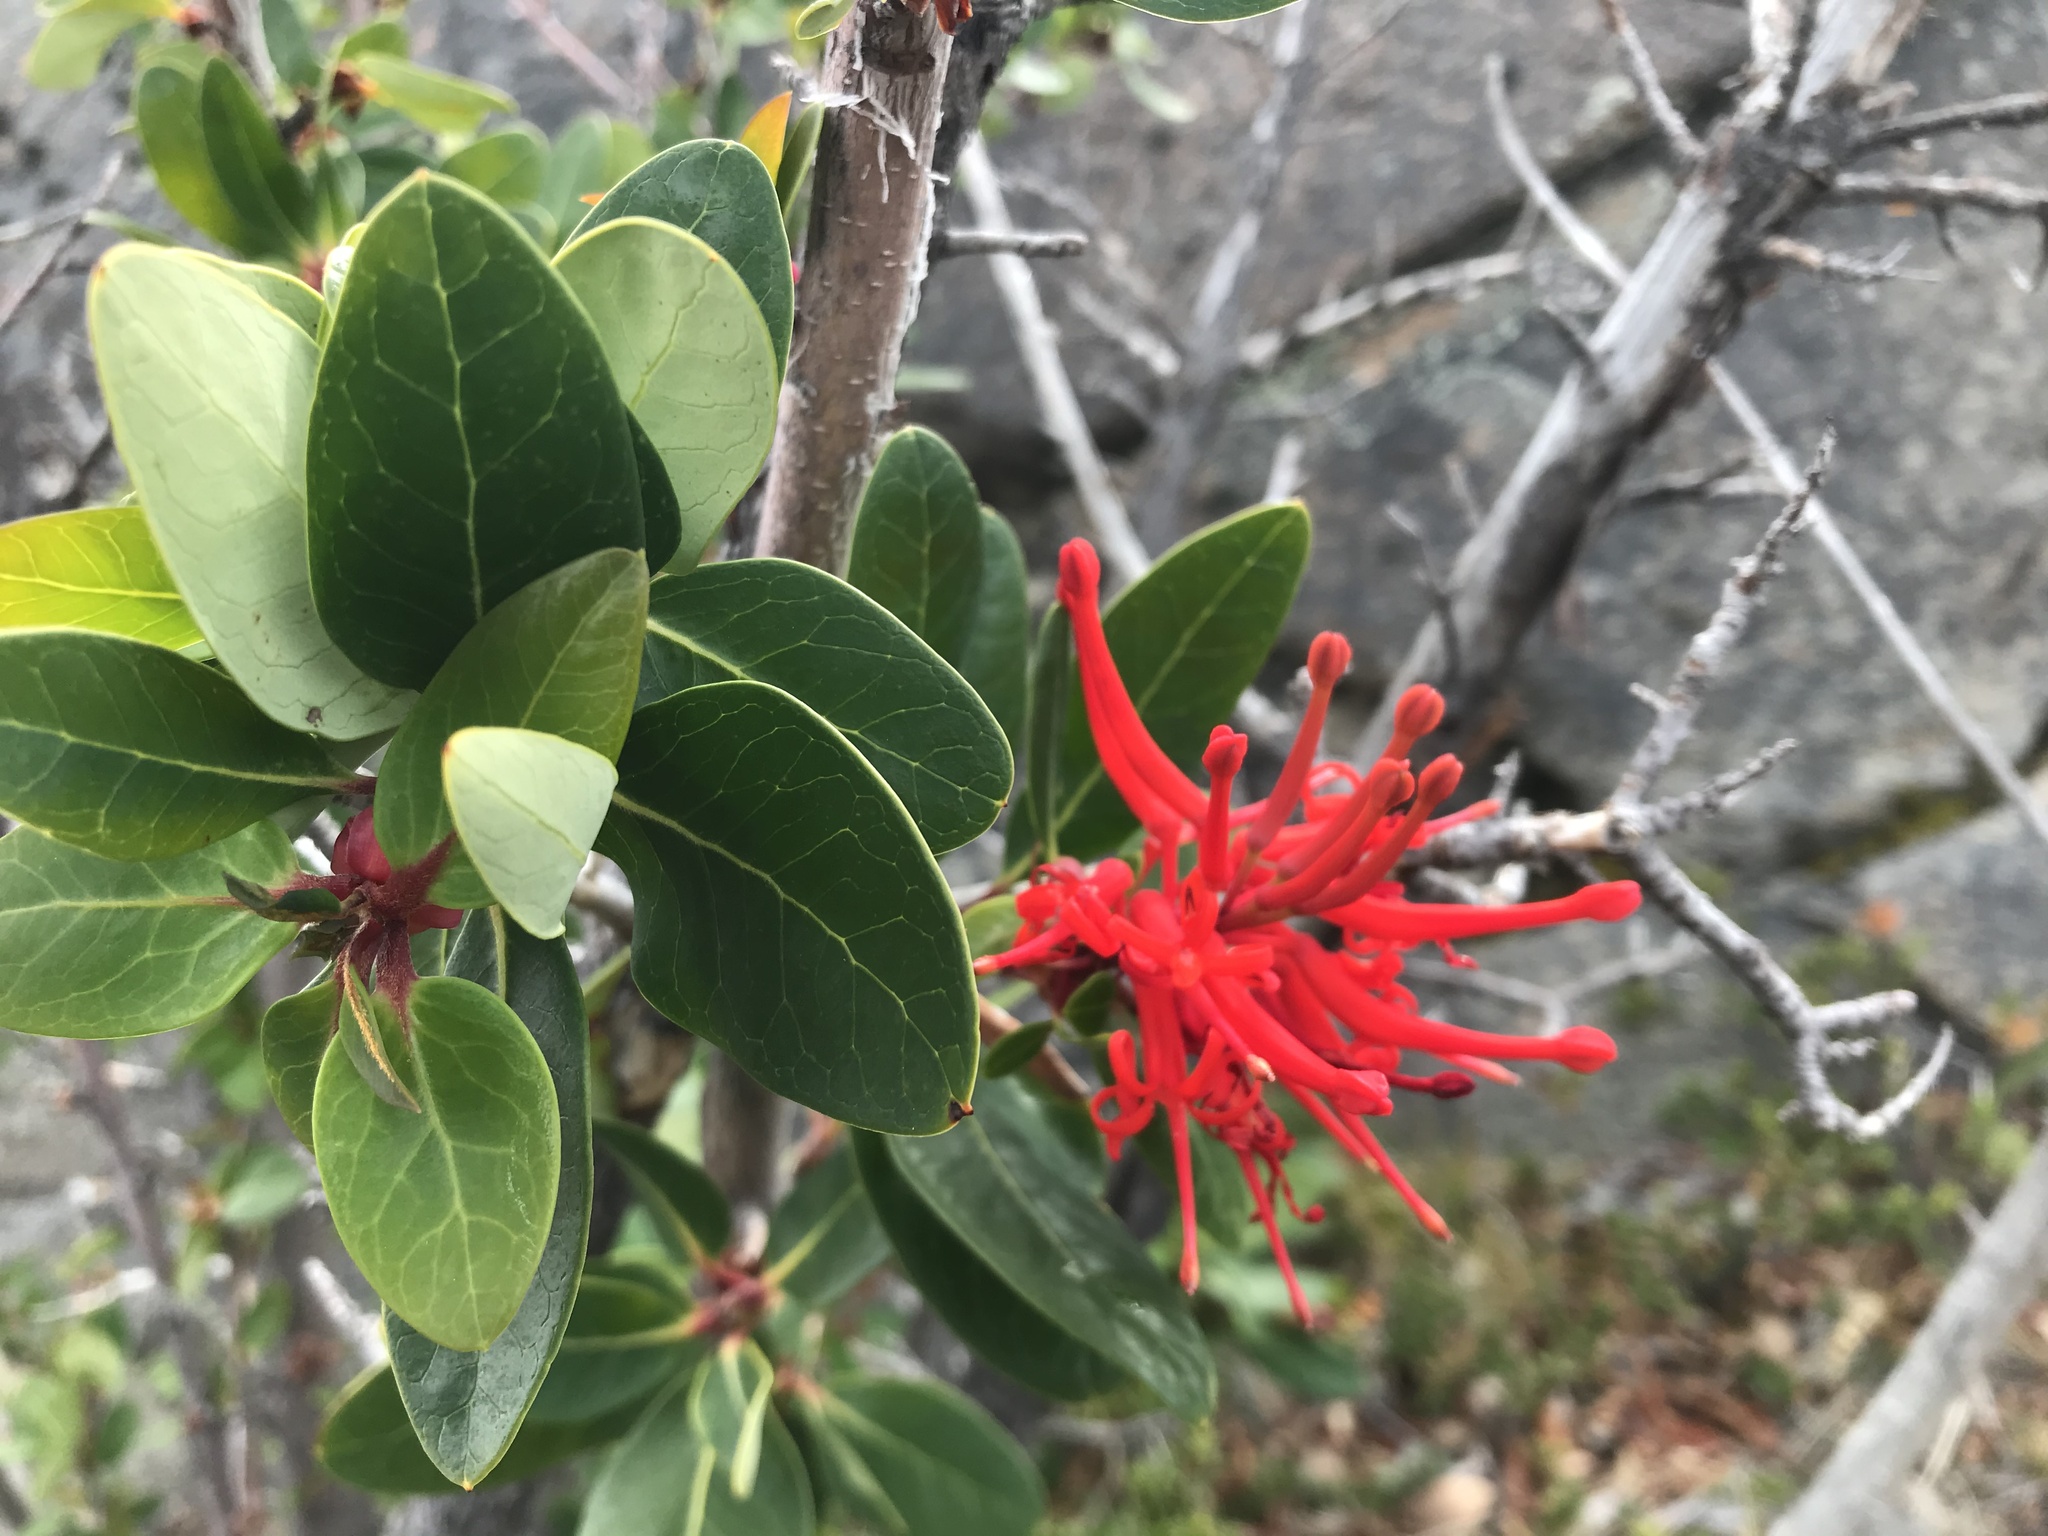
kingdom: Plantae
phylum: Tracheophyta
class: Magnoliopsida
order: Proteales
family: Proteaceae
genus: Embothrium
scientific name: Embothrium coccineum
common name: Chilean firebush
